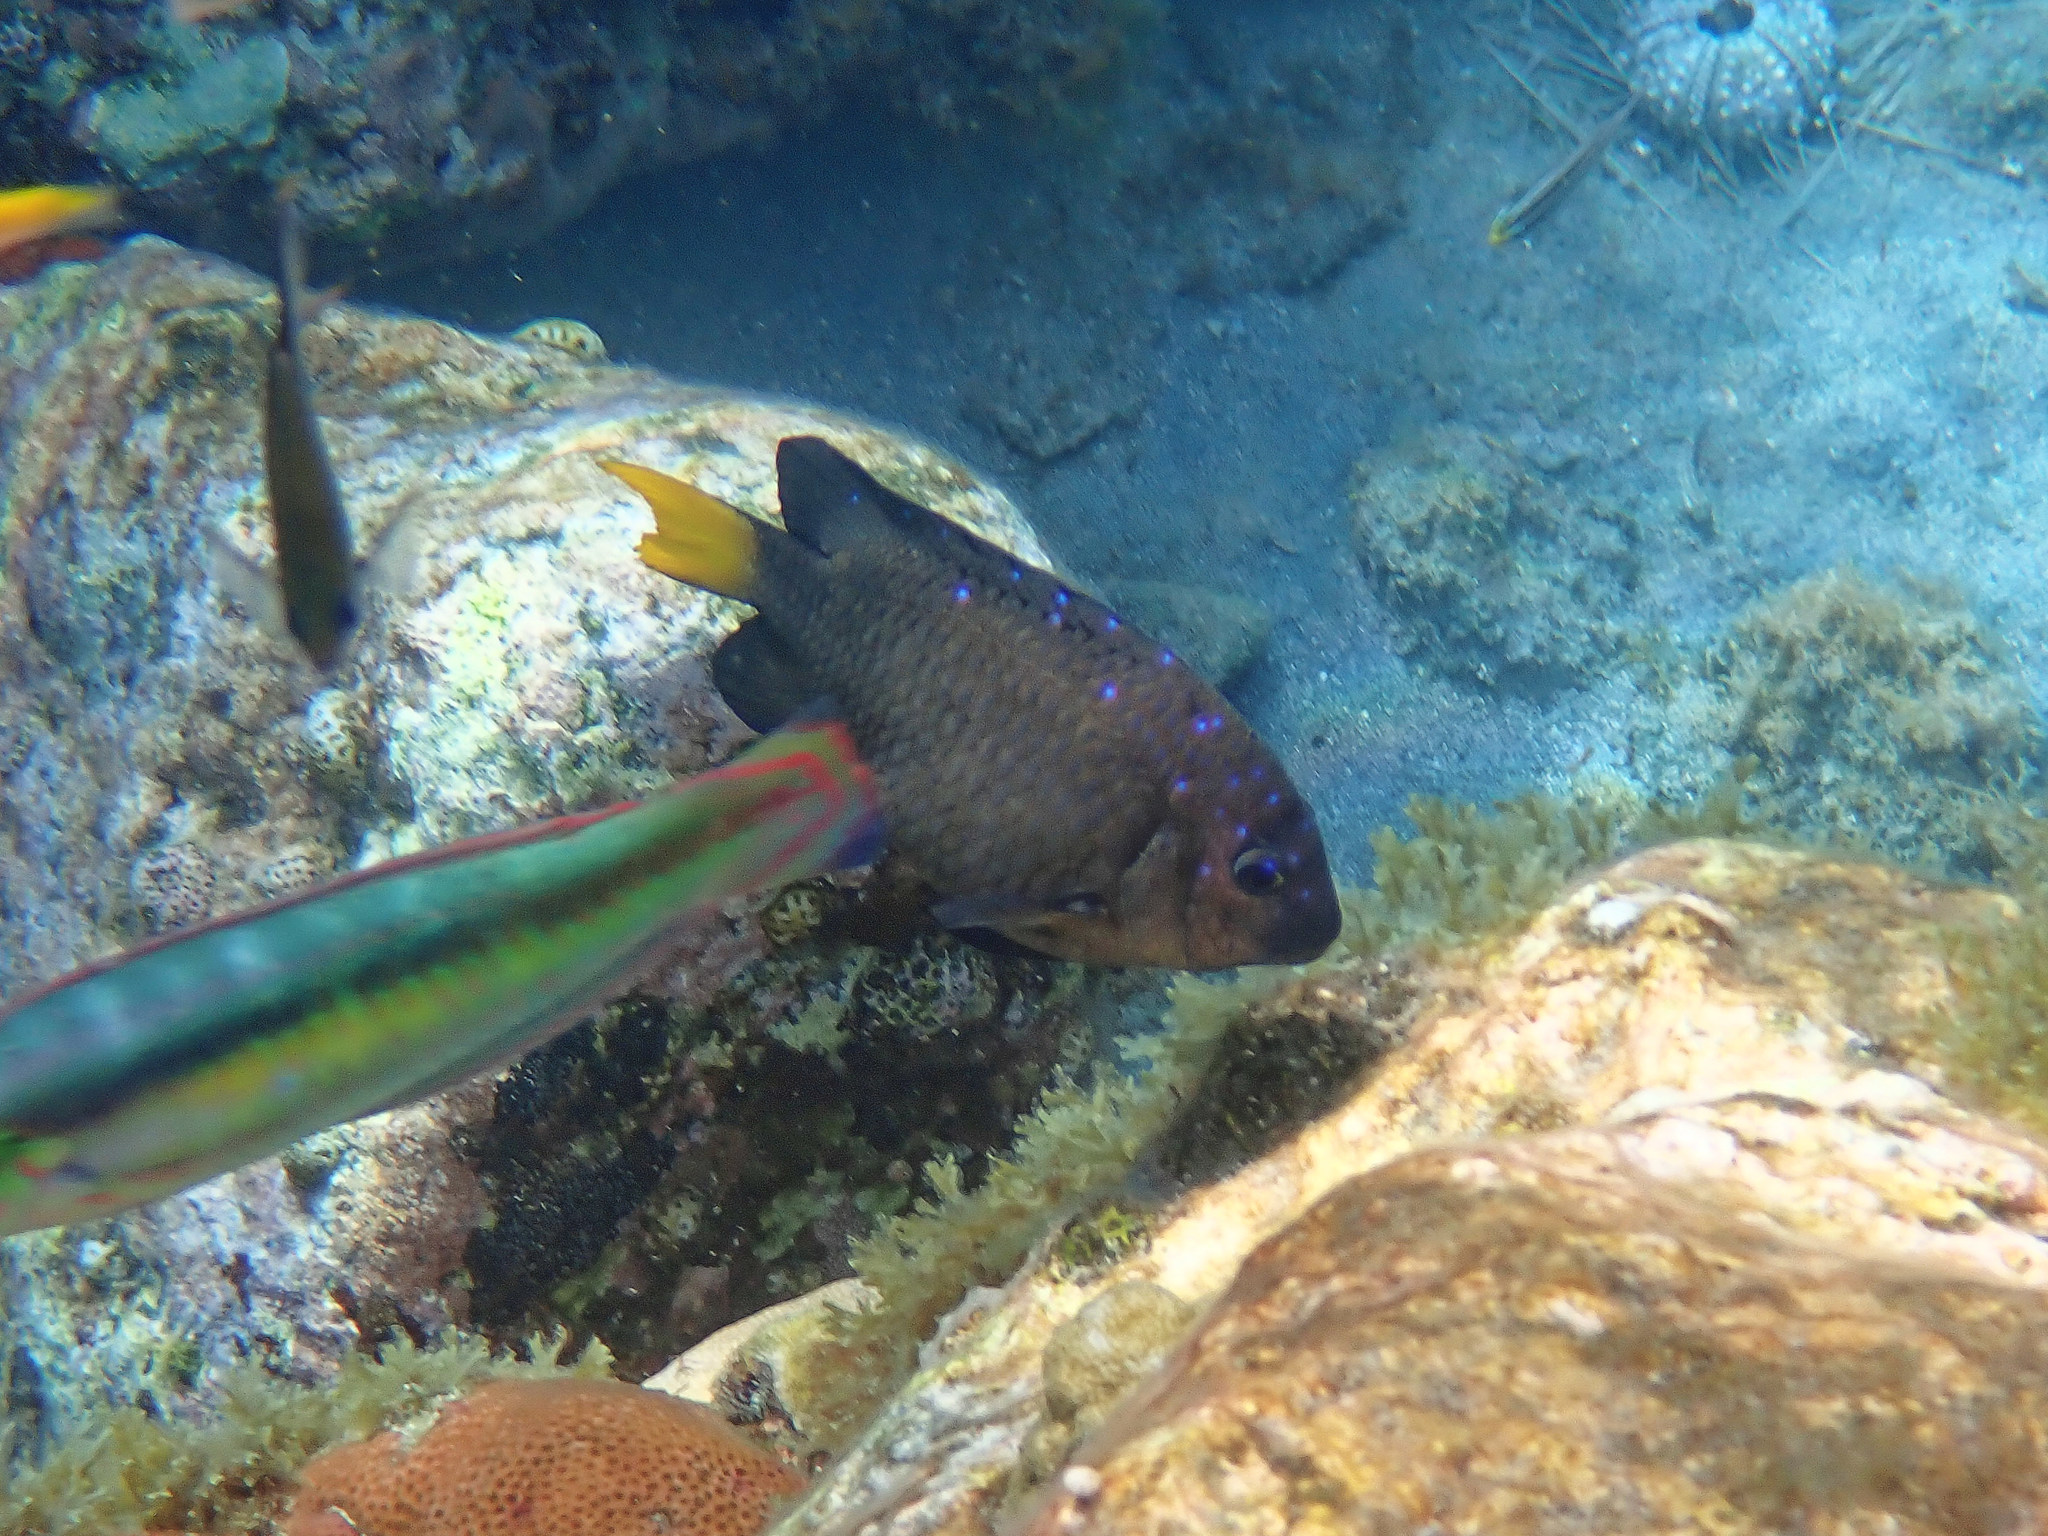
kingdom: Animalia
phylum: Chordata
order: Perciformes
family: Pomacentridae
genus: Microspathodon
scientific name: Microspathodon chrysurus
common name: Yellowtail damselfish
